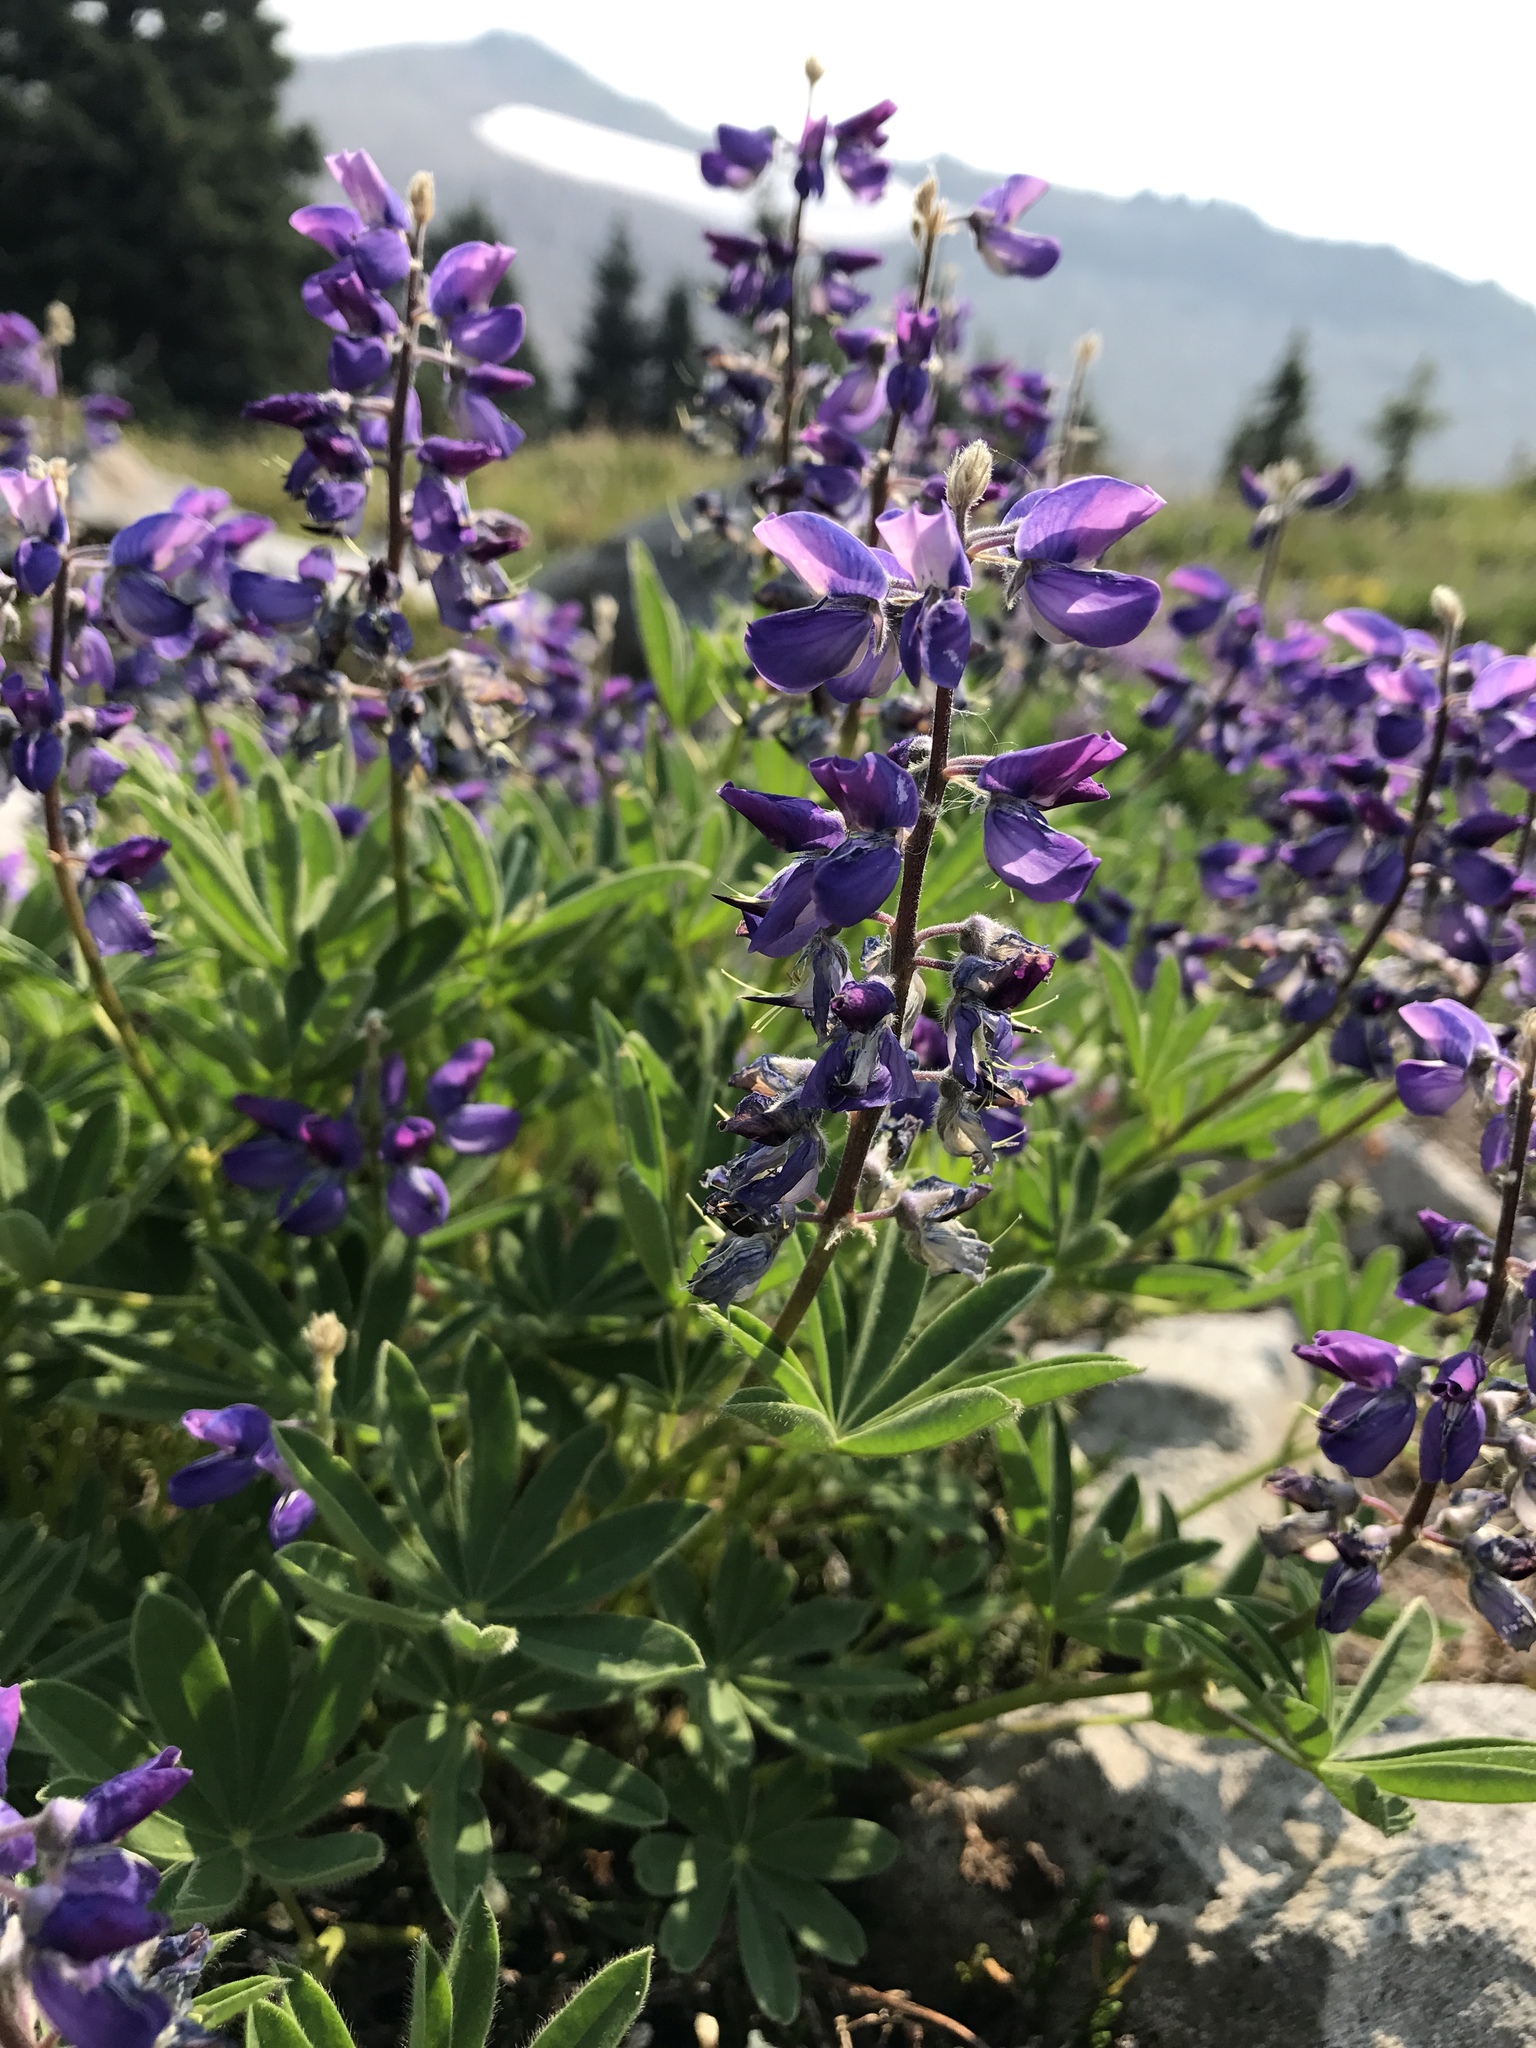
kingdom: Plantae
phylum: Tracheophyta
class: Magnoliopsida
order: Fabales
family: Fabaceae
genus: Lupinus
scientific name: Lupinus arcticus
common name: Arctic lupine
